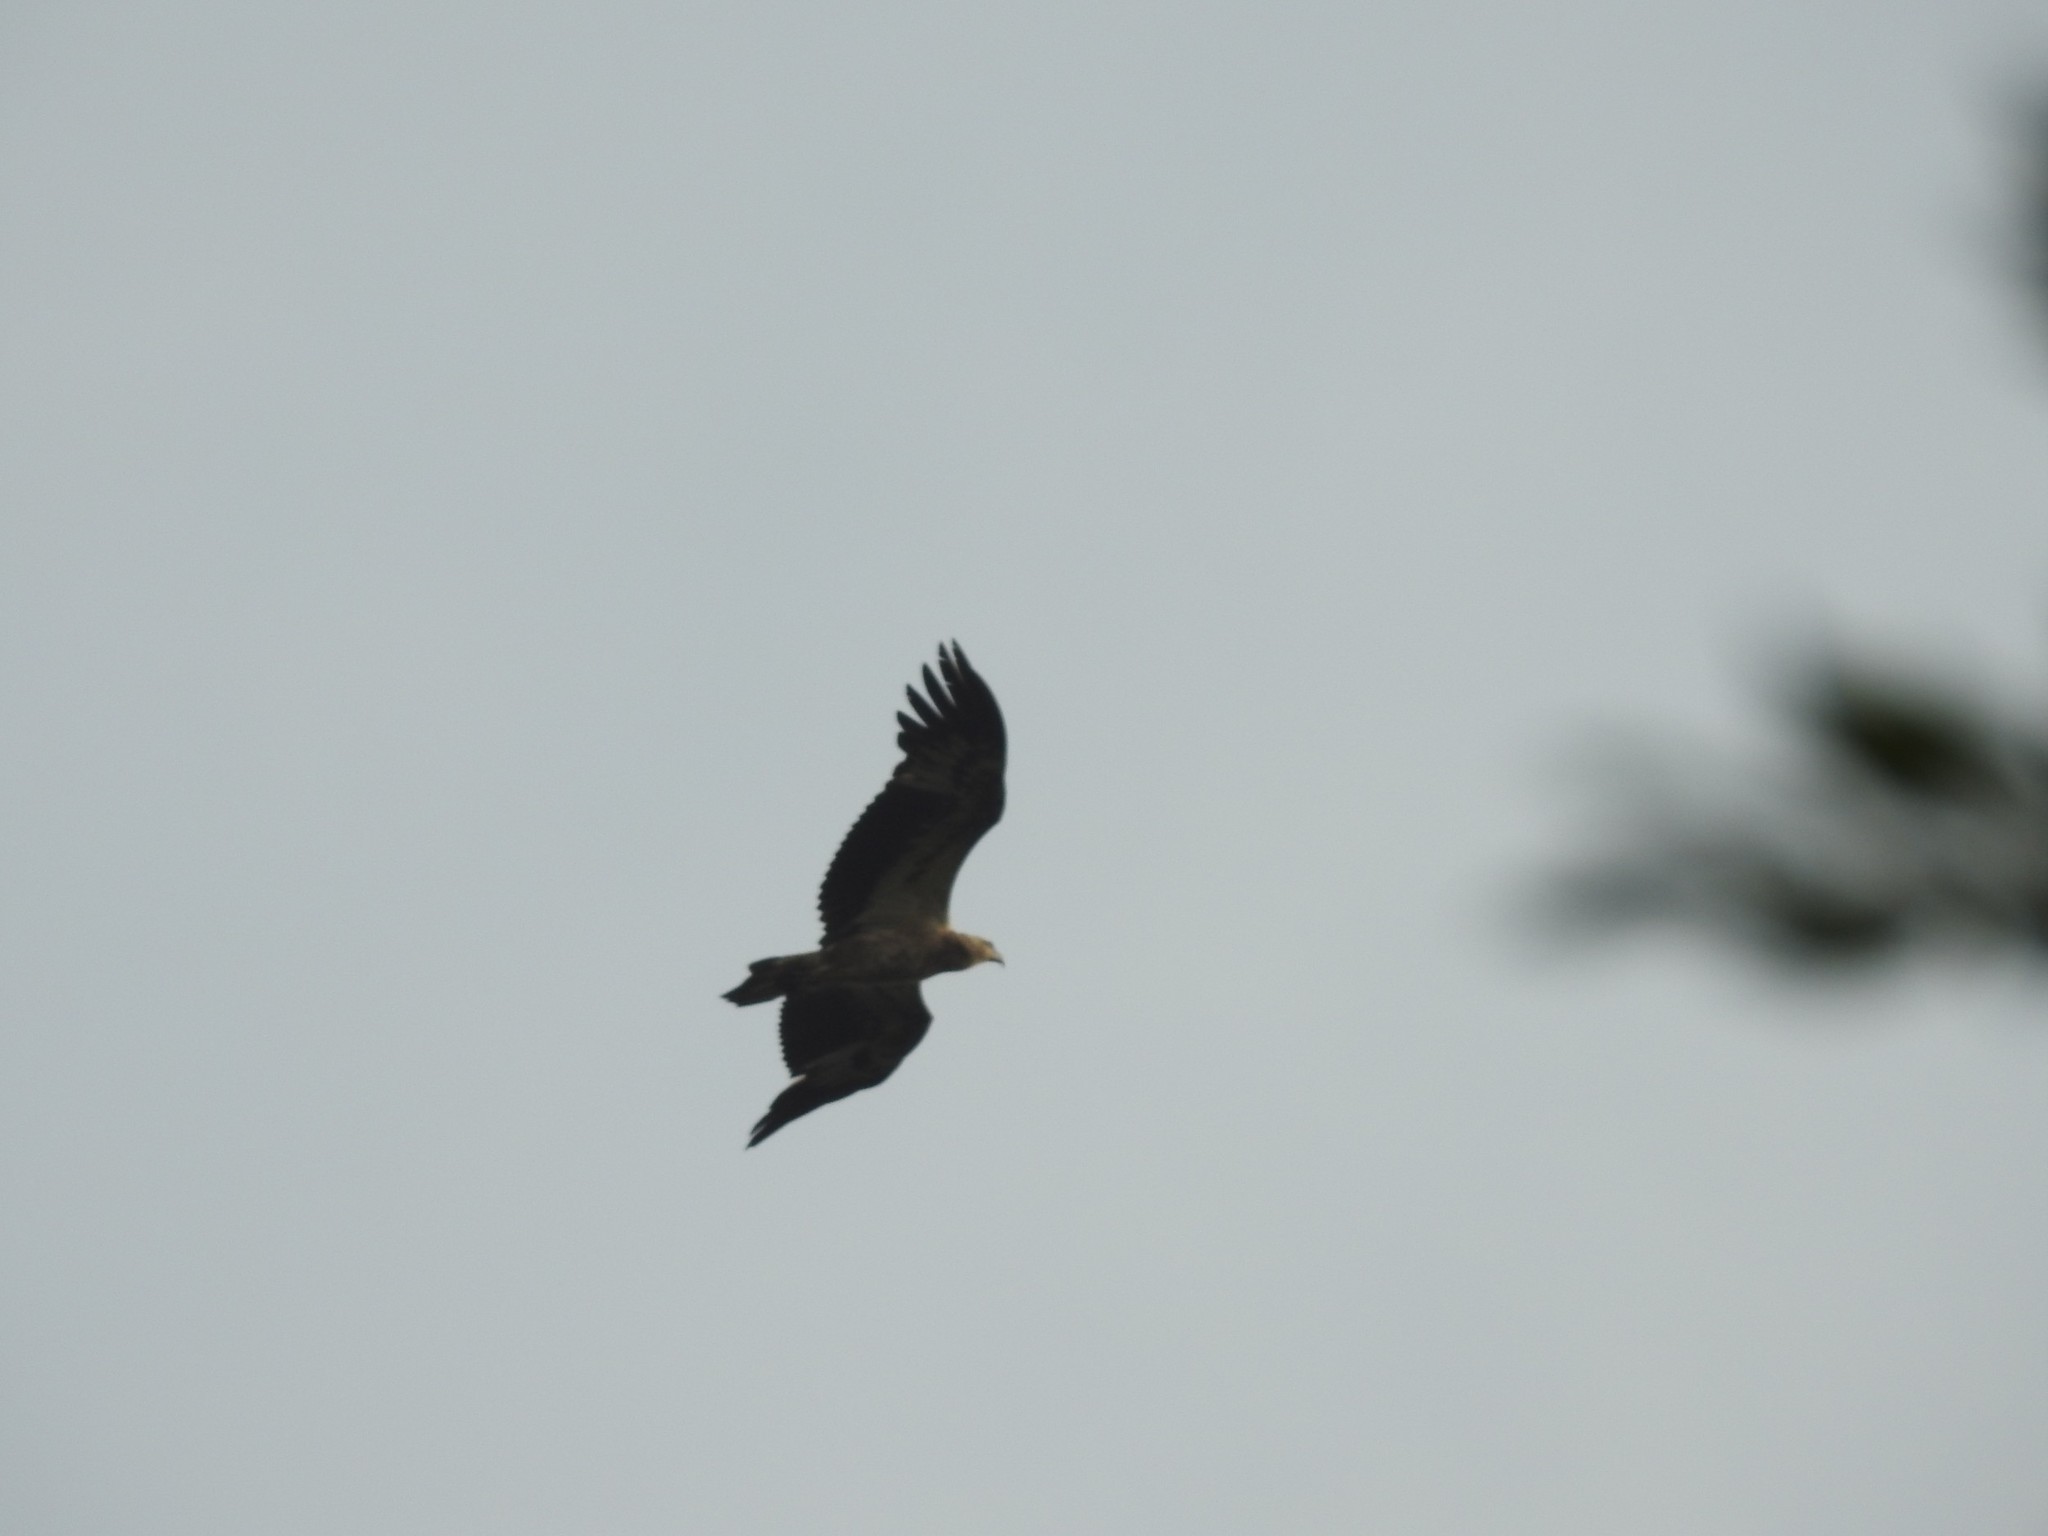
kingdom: Animalia
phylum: Chordata
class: Aves
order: Accipitriformes
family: Accipitridae
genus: Pernis
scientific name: Pernis ptilorhynchus
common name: Crested honey buzzard
